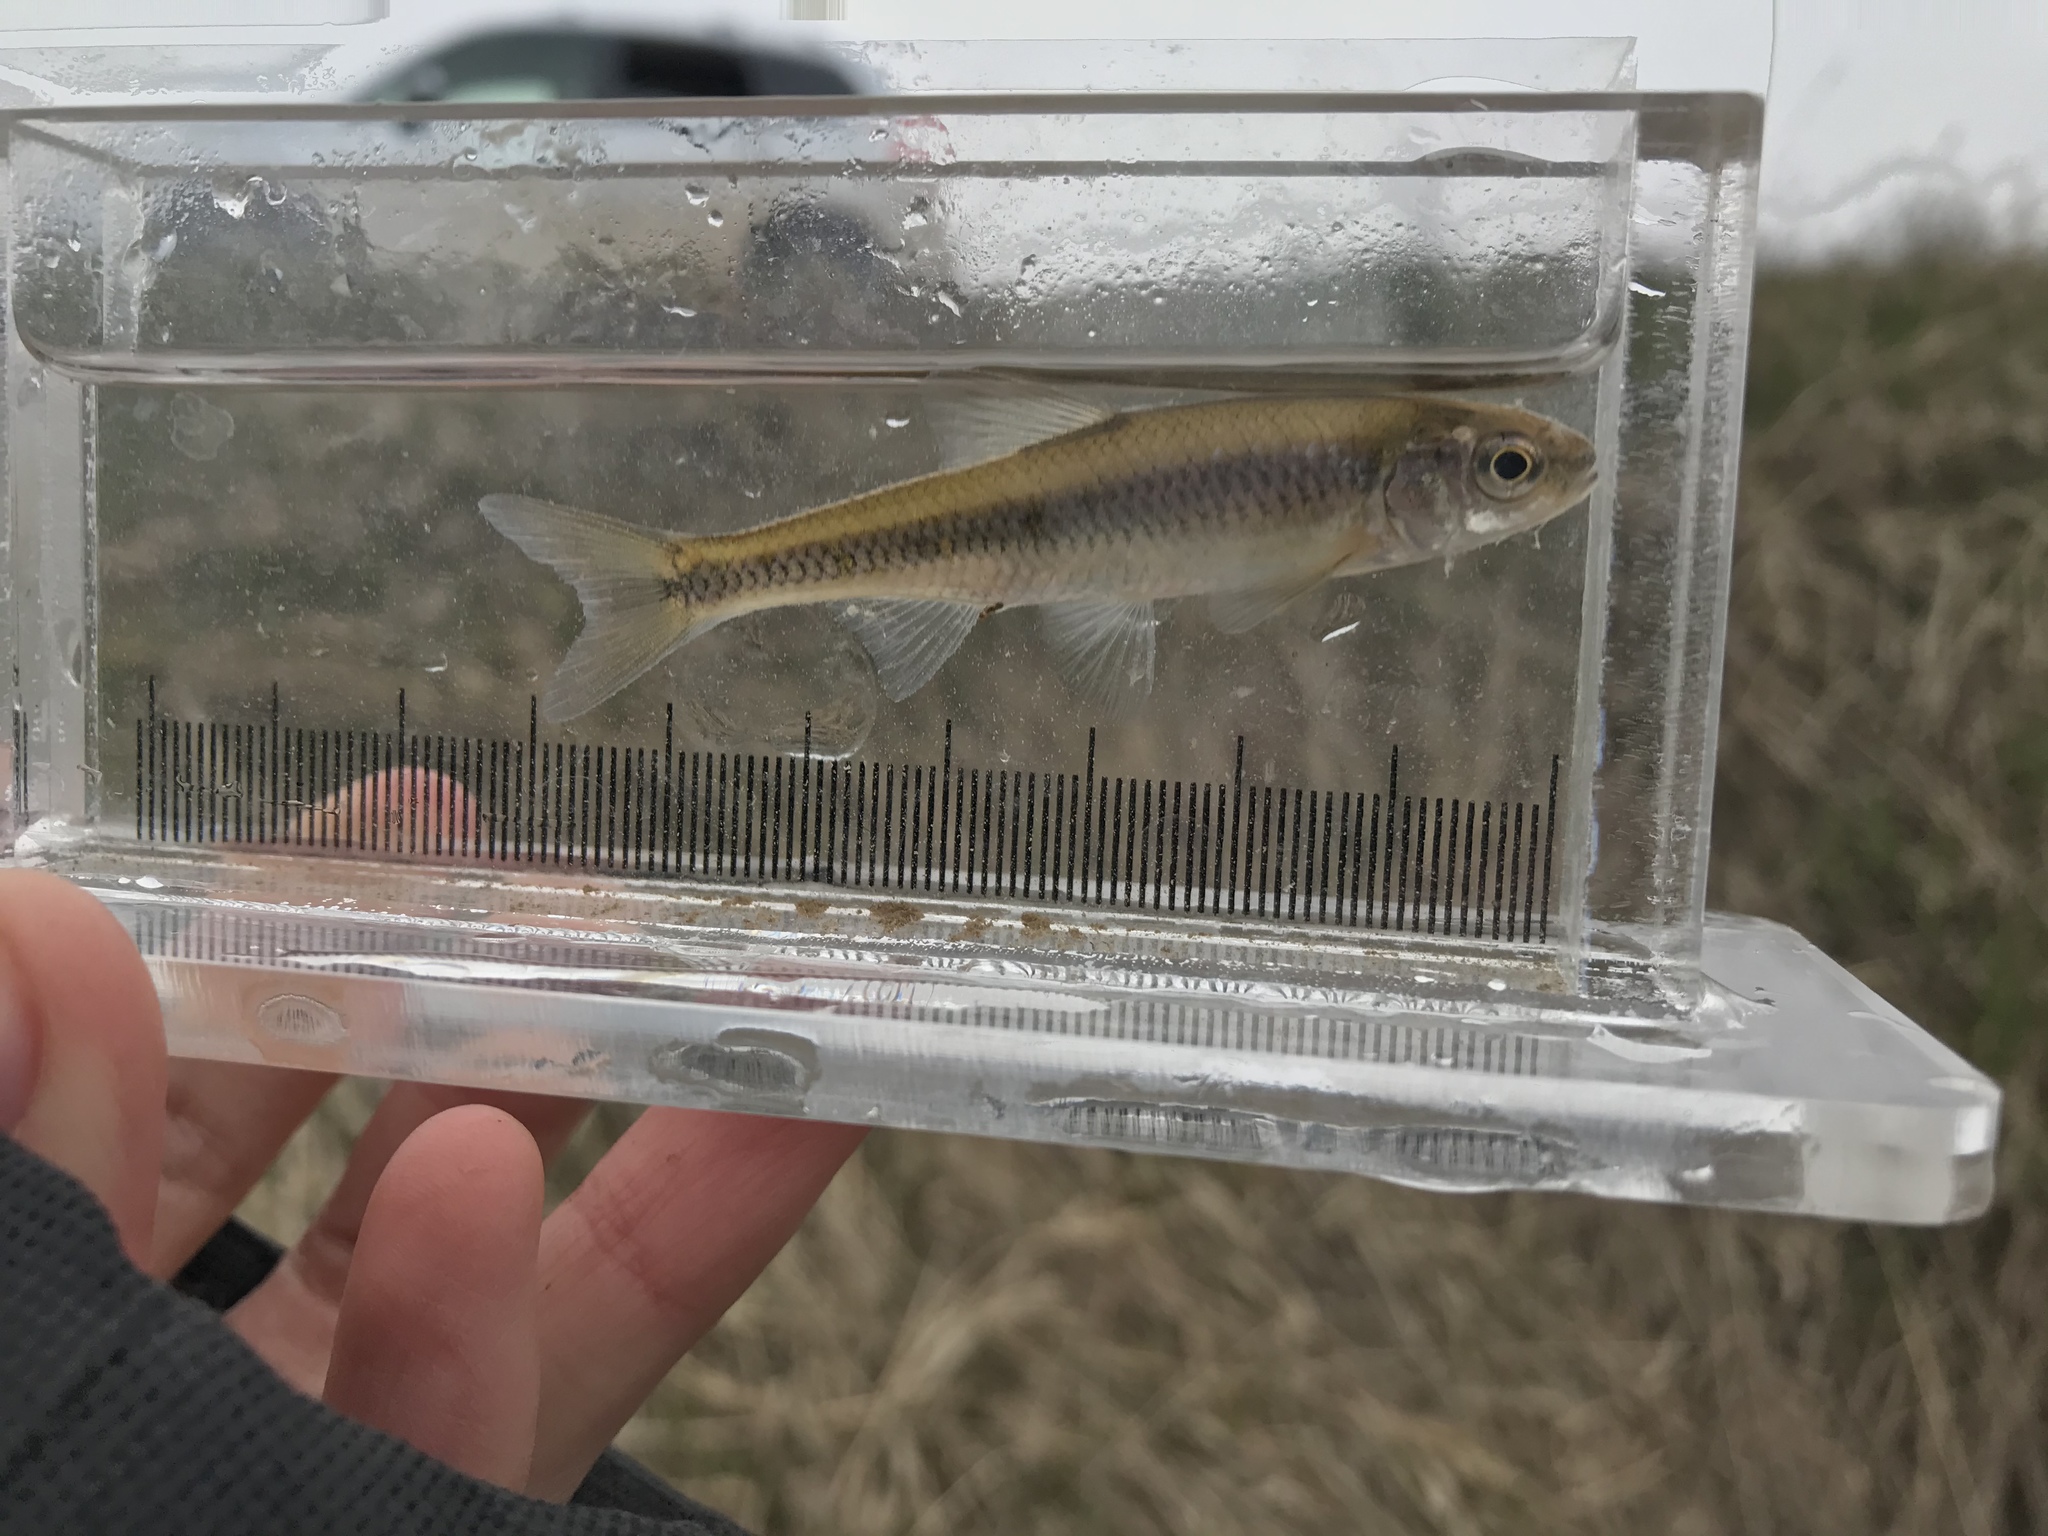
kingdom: Animalia
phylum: Chordata
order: Cypriniformes
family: Cyprinidae
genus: Luxilus
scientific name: Luxilus cornutus
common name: Common shiner
